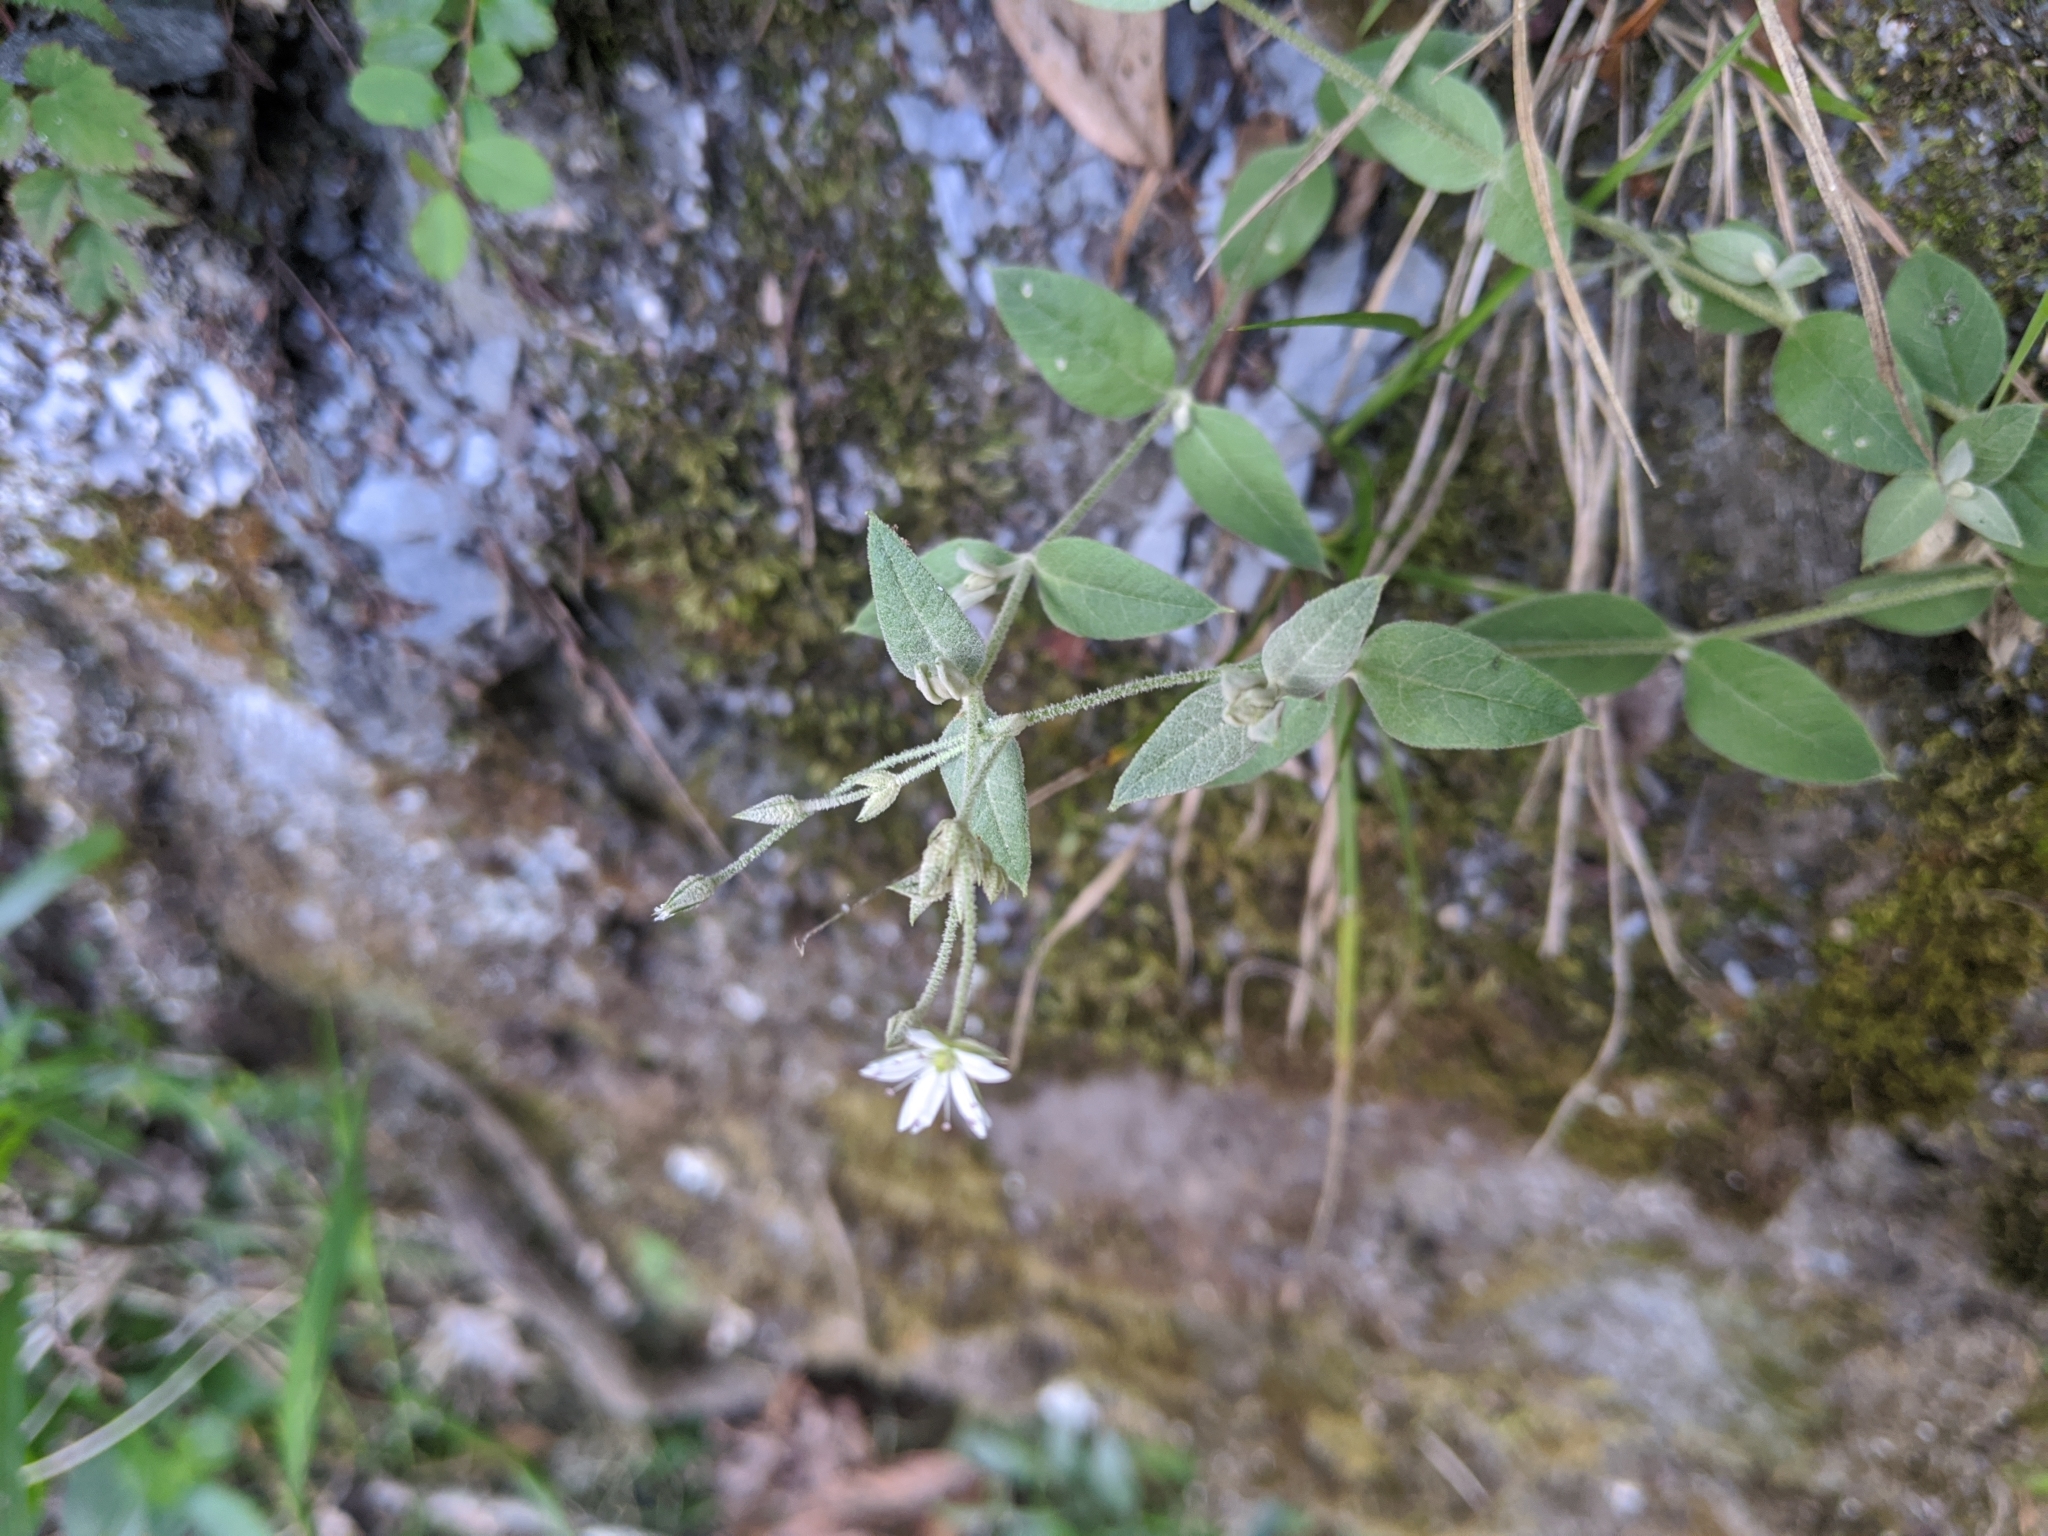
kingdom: Plantae
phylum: Tracheophyta
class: Magnoliopsida
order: Caryophyllales
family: Caryophyllaceae
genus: Stellaria
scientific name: Stellaria vestita
